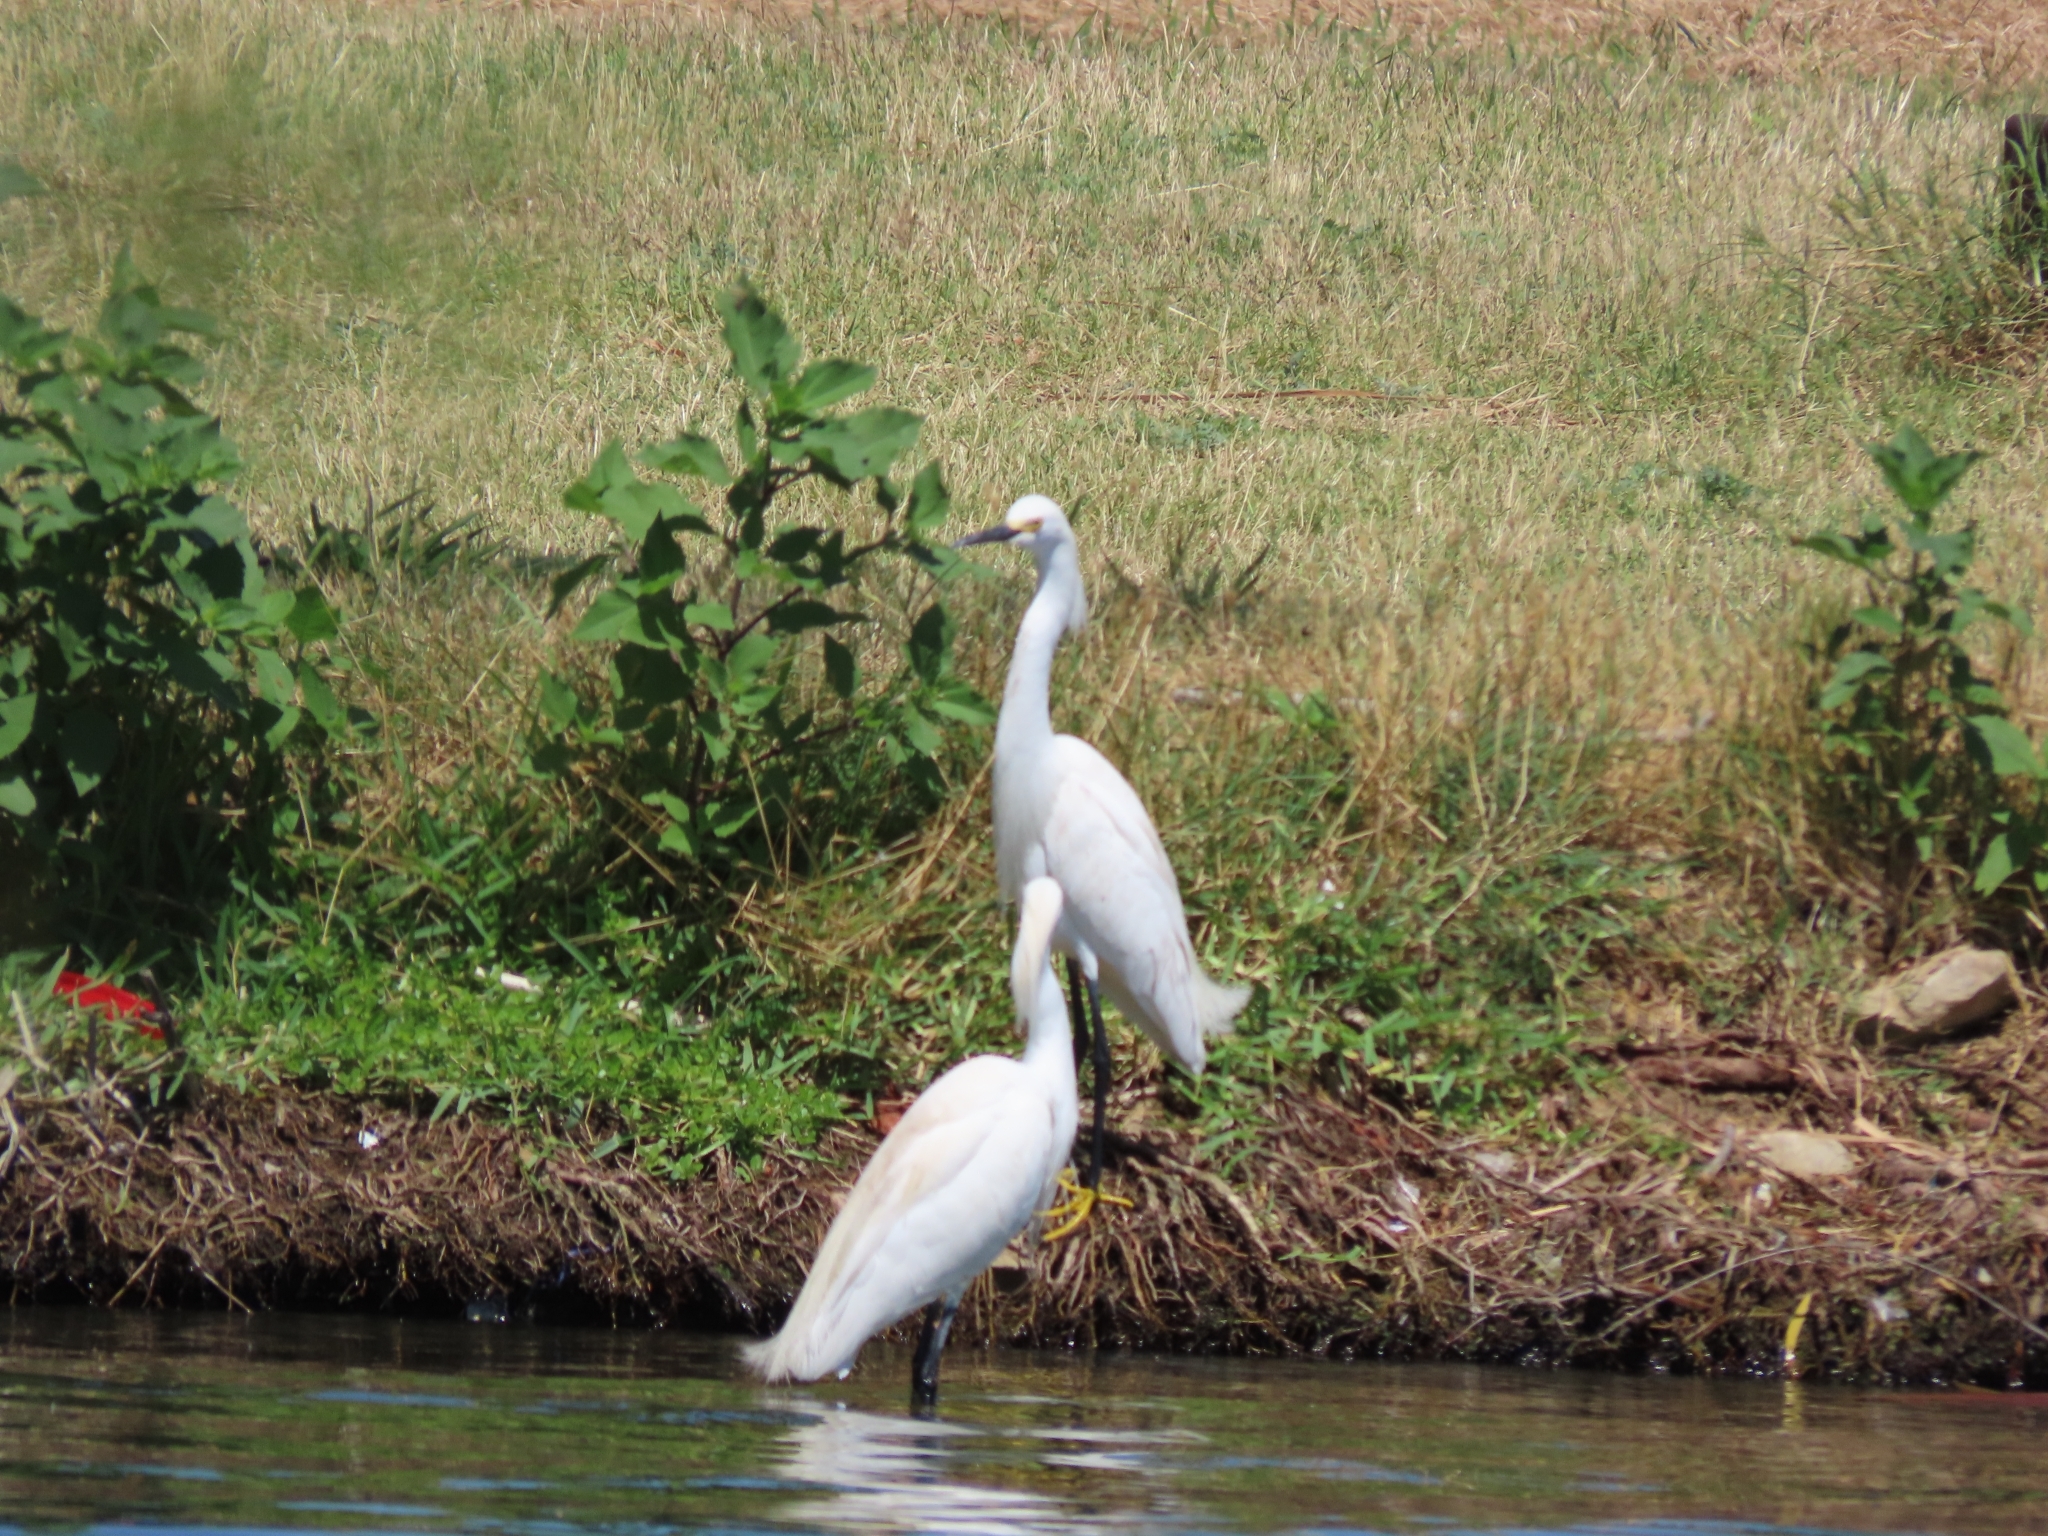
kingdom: Animalia
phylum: Chordata
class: Aves
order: Pelecaniformes
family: Ardeidae
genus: Egretta
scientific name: Egretta thula
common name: Snowy egret
